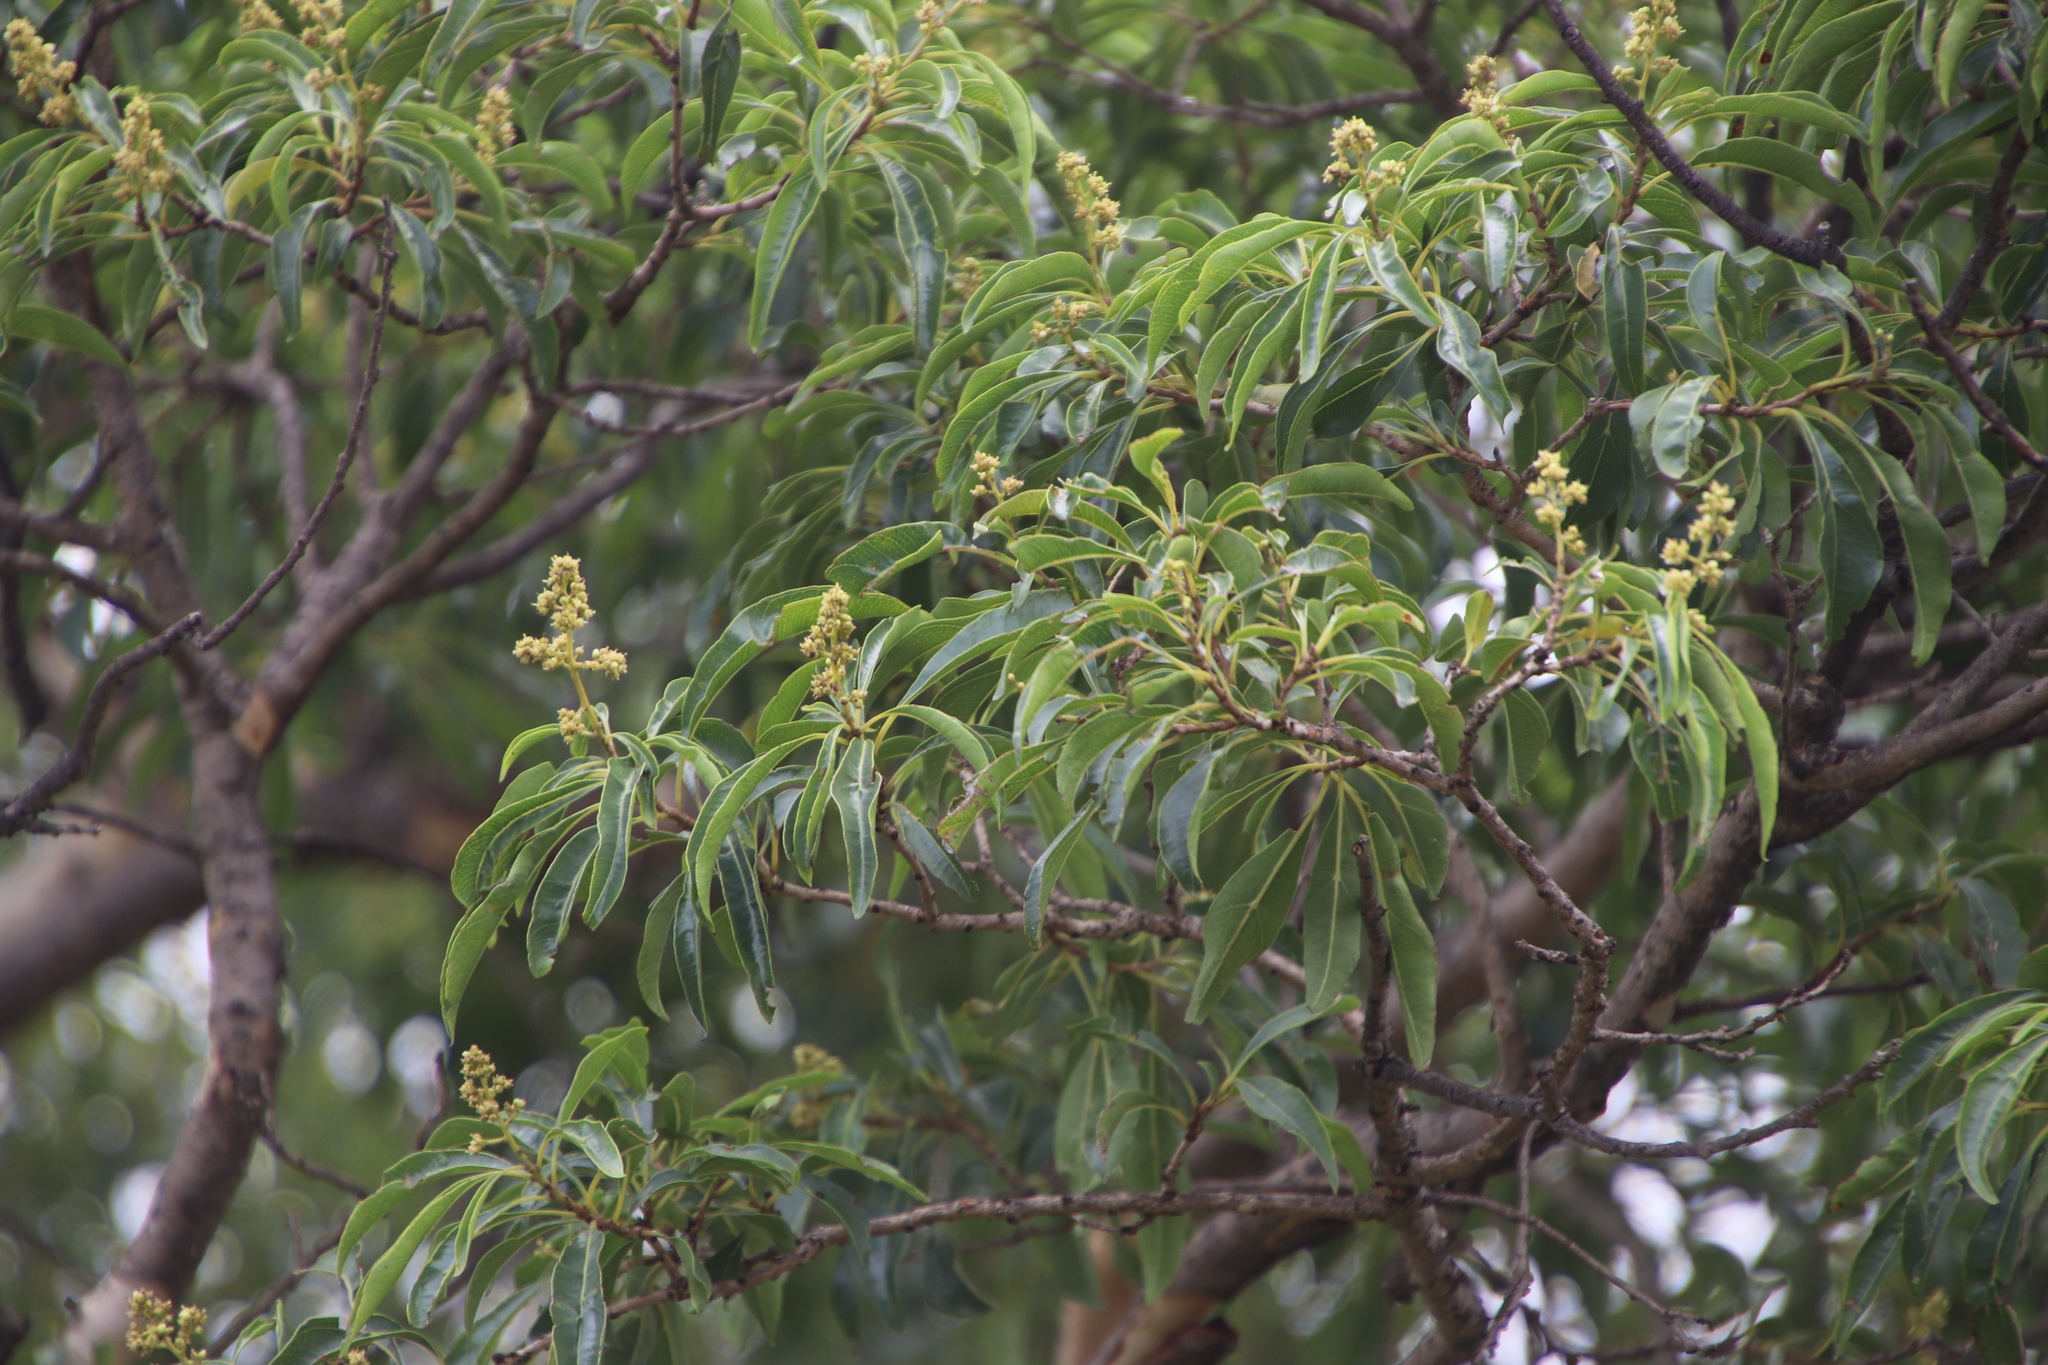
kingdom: Plantae
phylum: Tracheophyta
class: Magnoliopsida
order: Myrtales
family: Myrtaceae
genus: Heteropyxis
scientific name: Heteropyxis natalensis
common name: Lavender tree
